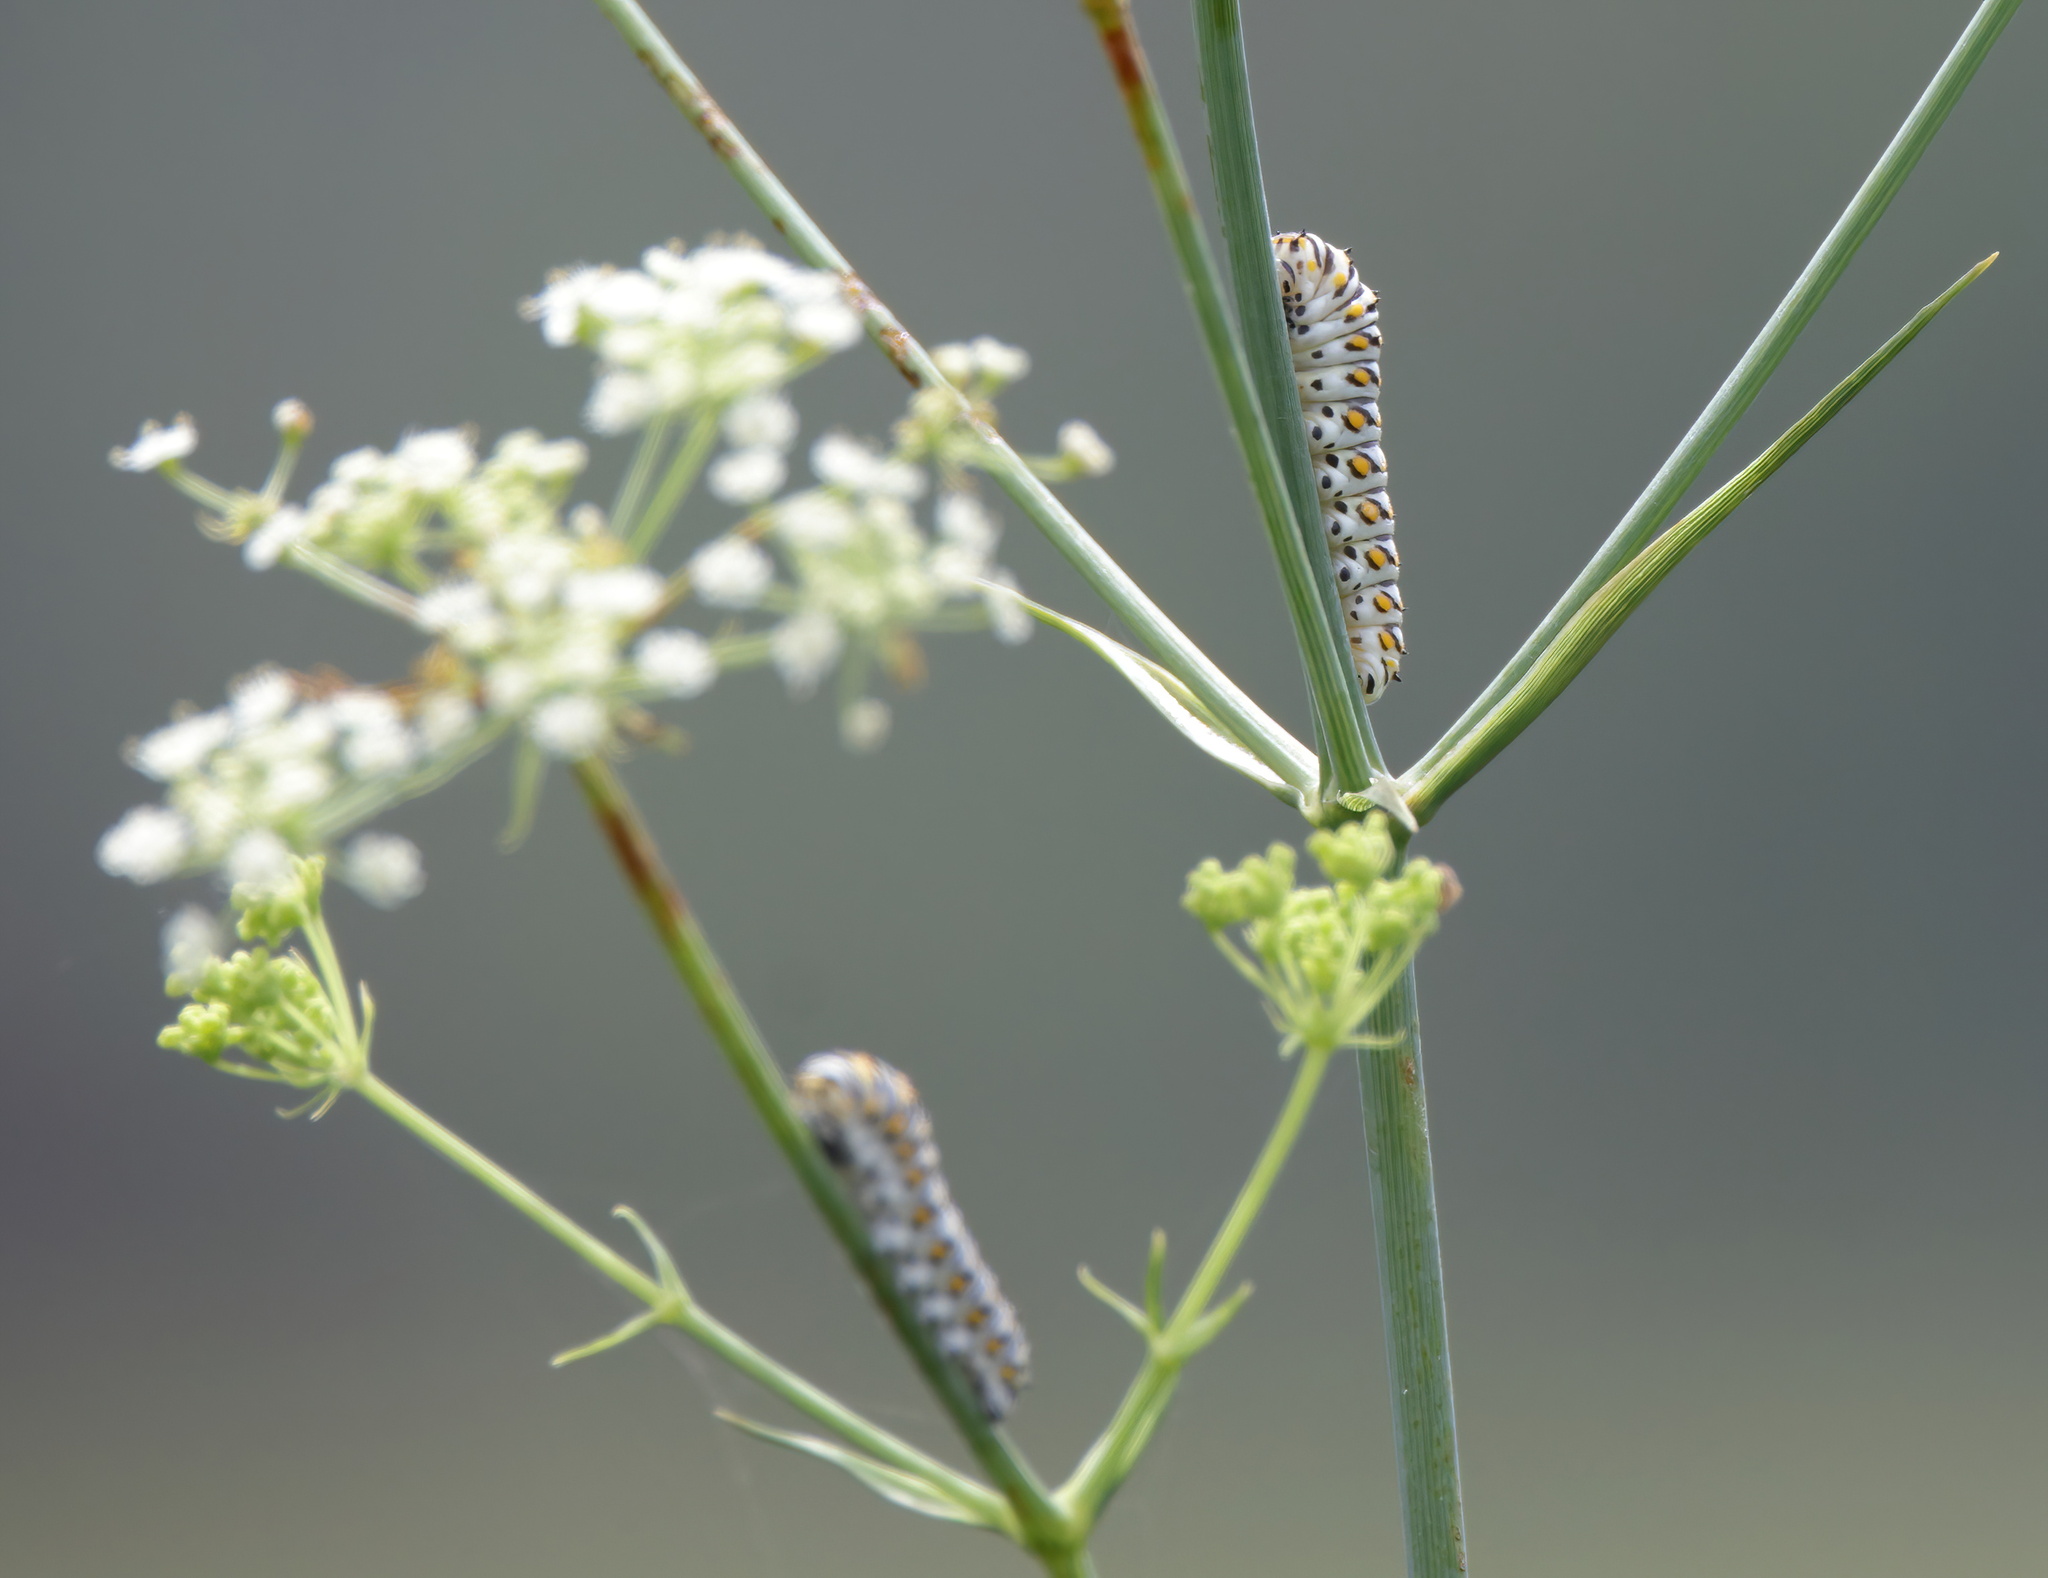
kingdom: Animalia
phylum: Arthropoda
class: Insecta
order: Lepidoptera
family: Papilionidae
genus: Papilio
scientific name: Papilio polyxenes
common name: Black swallowtail
